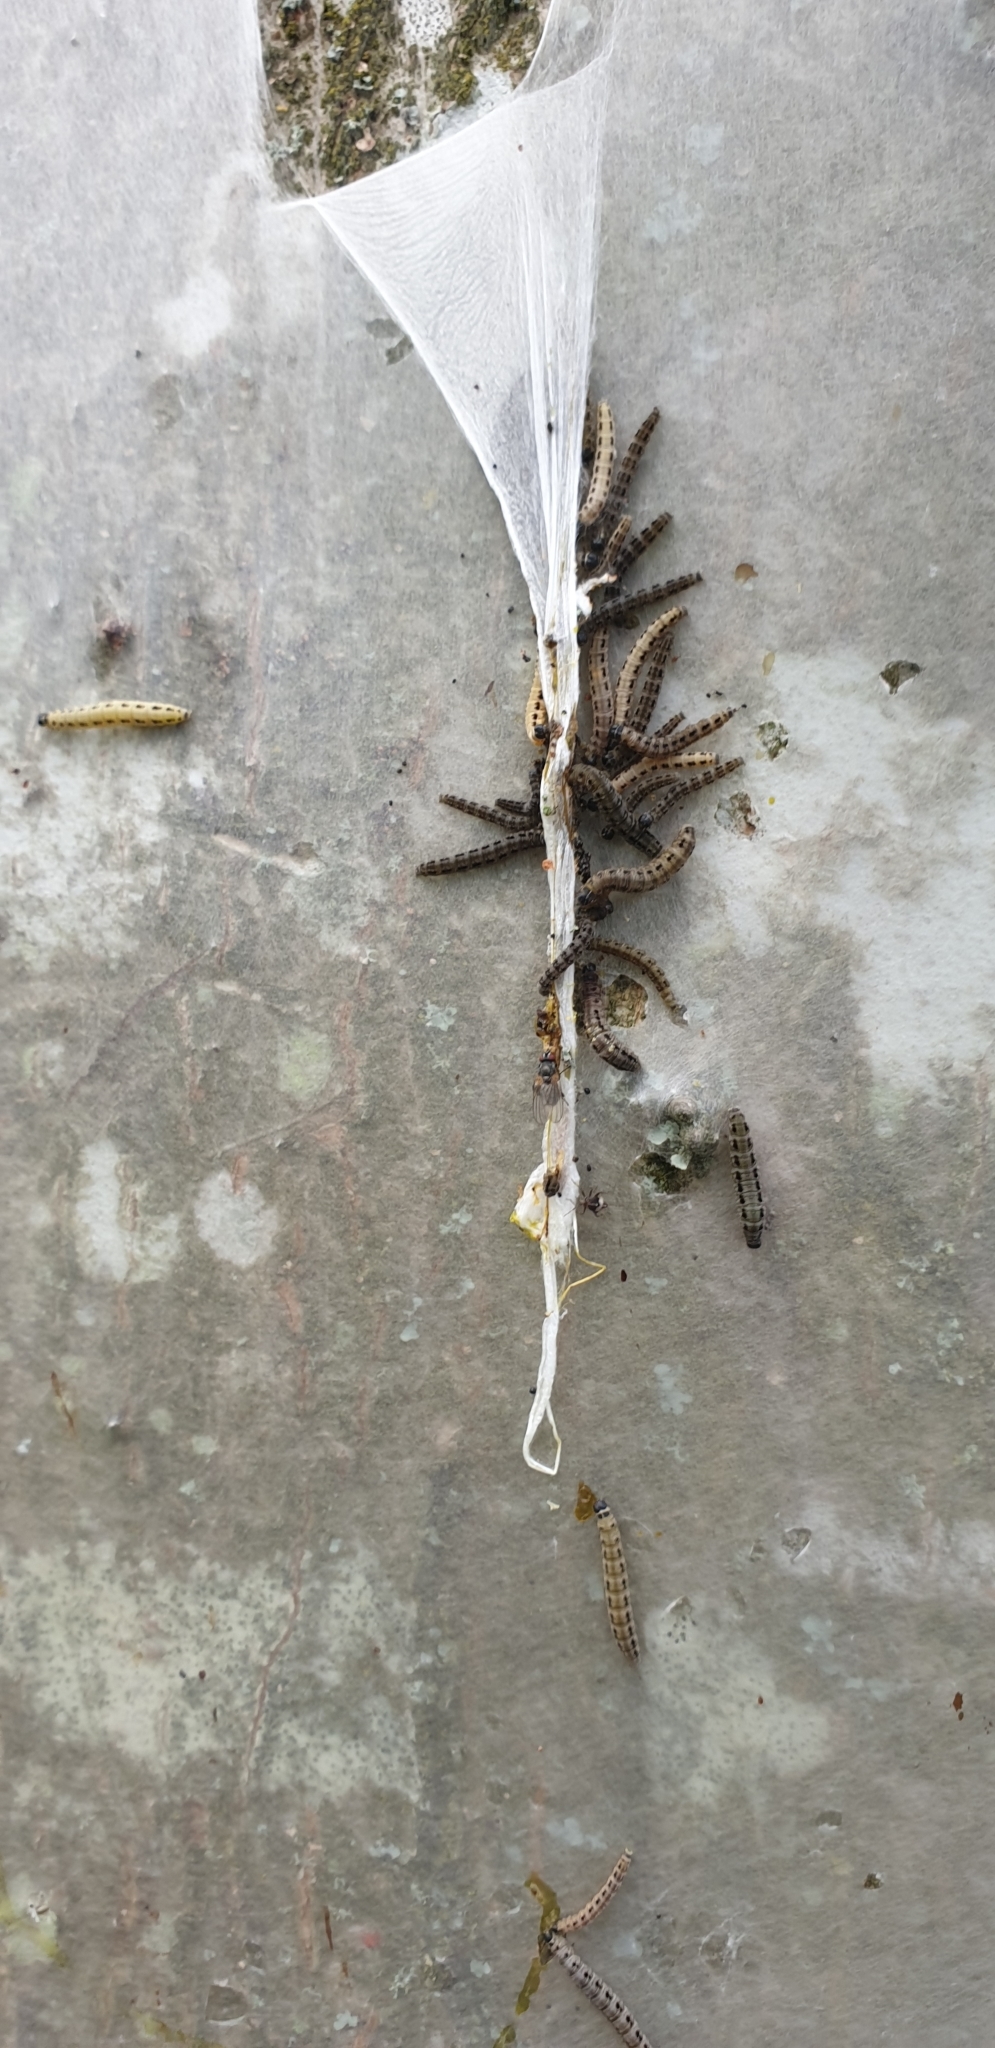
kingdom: Animalia
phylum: Arthropoda
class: Insecta
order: Lepidoptera
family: Yponomeutidae
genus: Yponomeuta
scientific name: Yponomeuta evonymella
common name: Bird-cherry ermine
